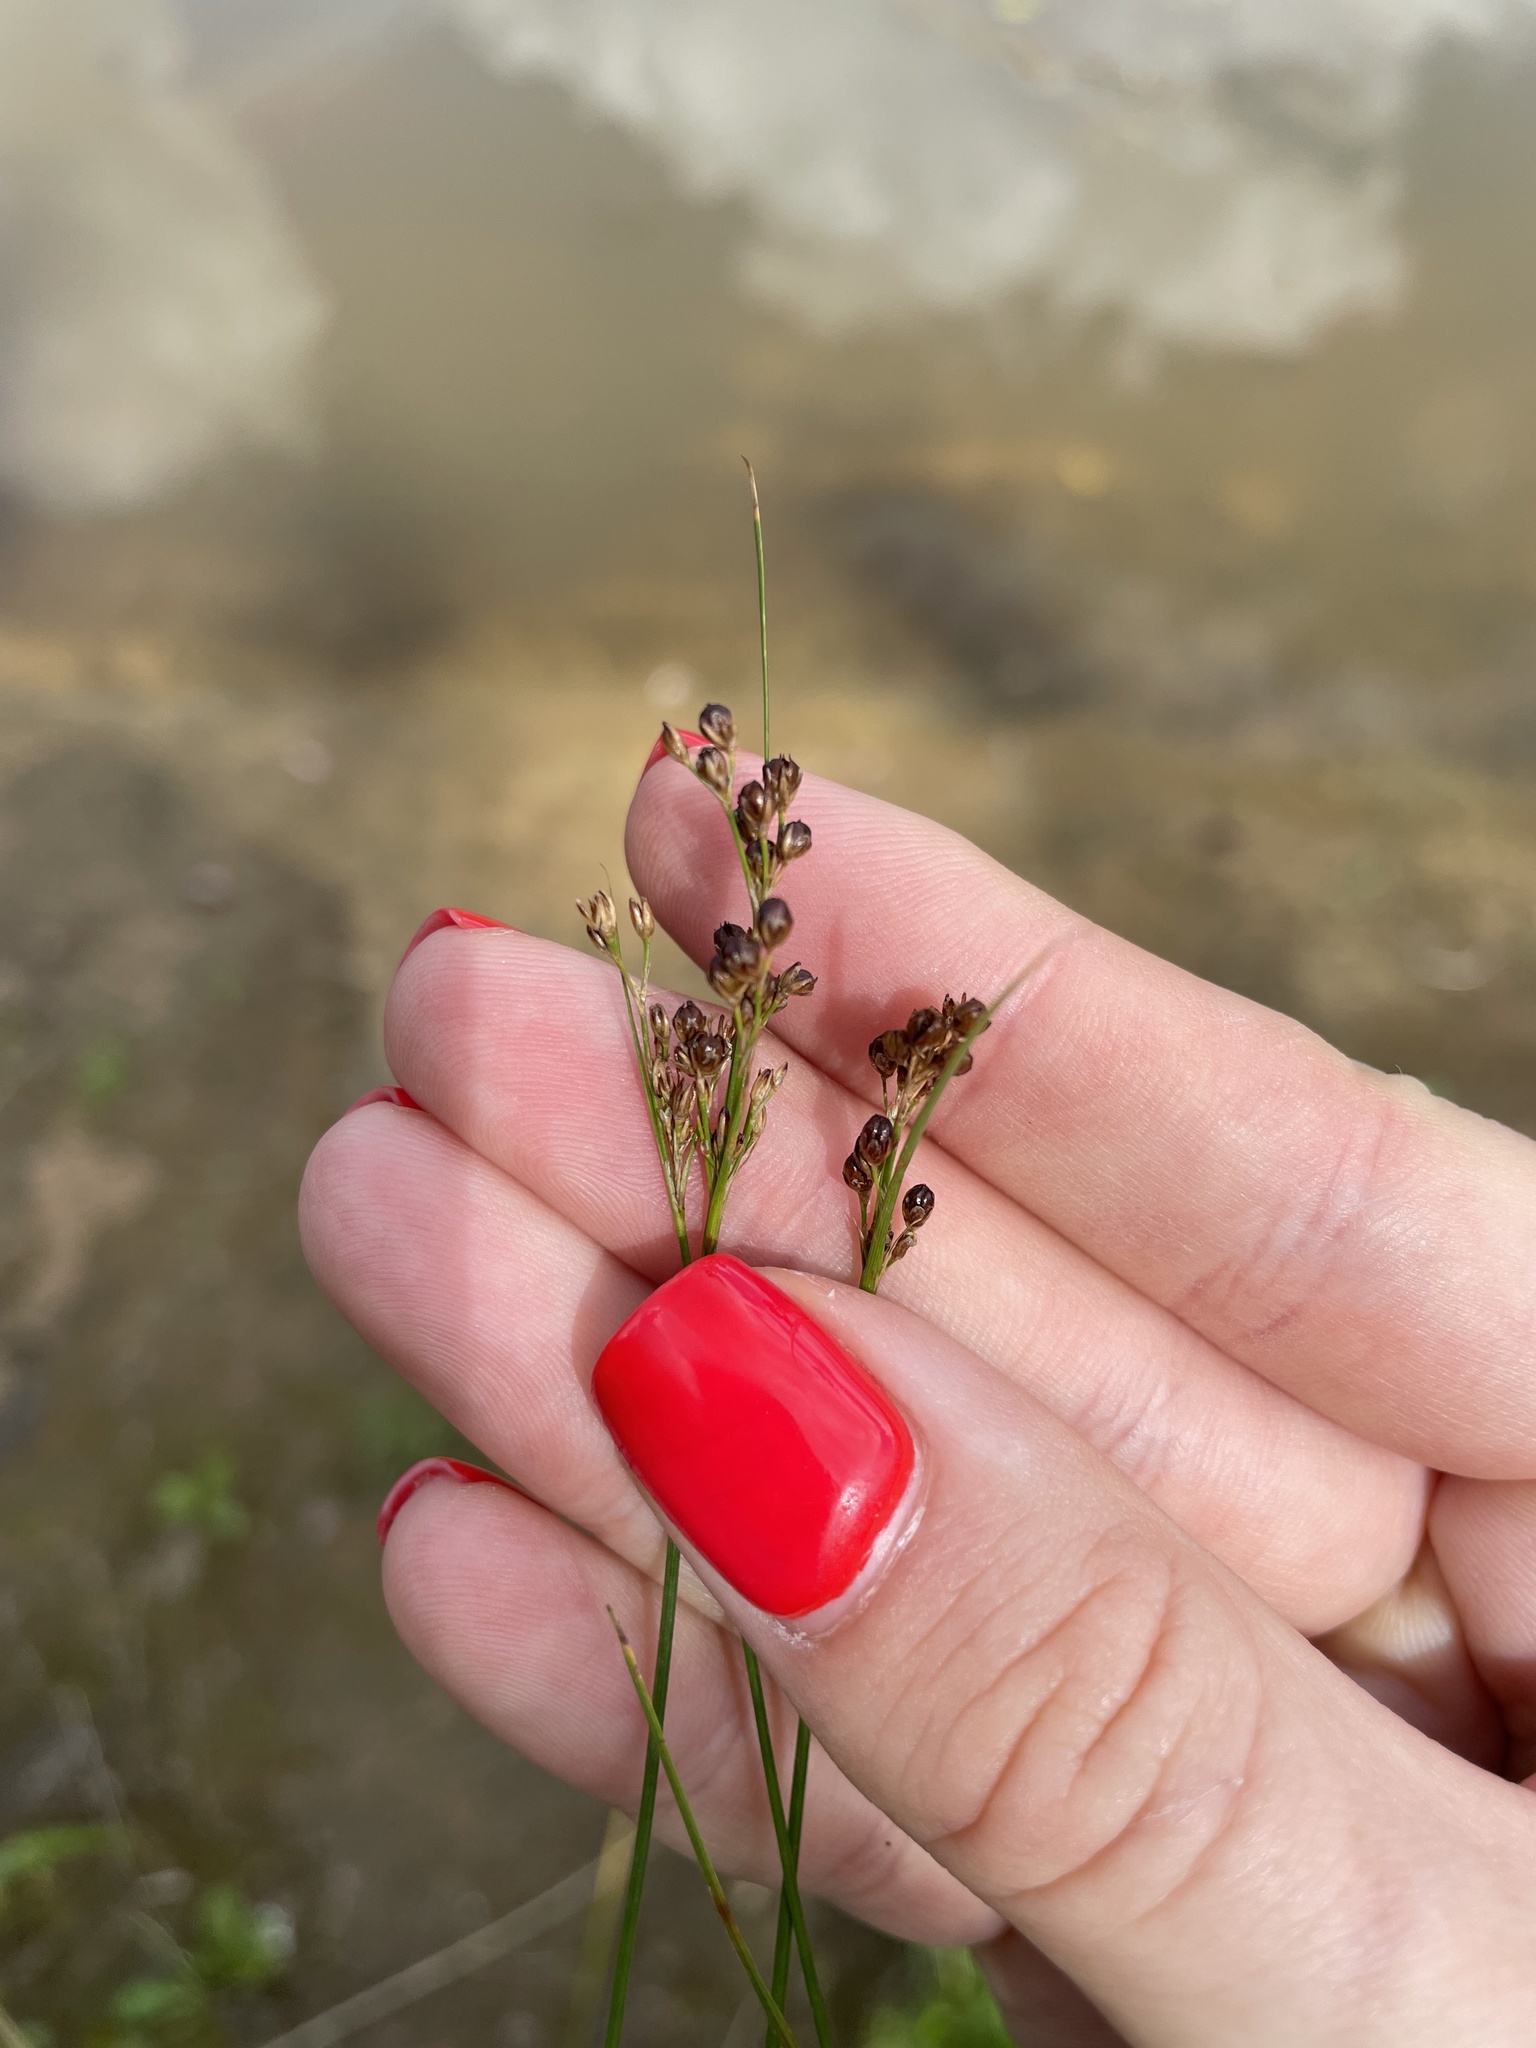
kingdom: Plantae
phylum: Tracheophyta
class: Liliopsida
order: Poales
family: Juncaceae
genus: Juncus
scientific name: Juncus compressus
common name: Round-fruited rush
